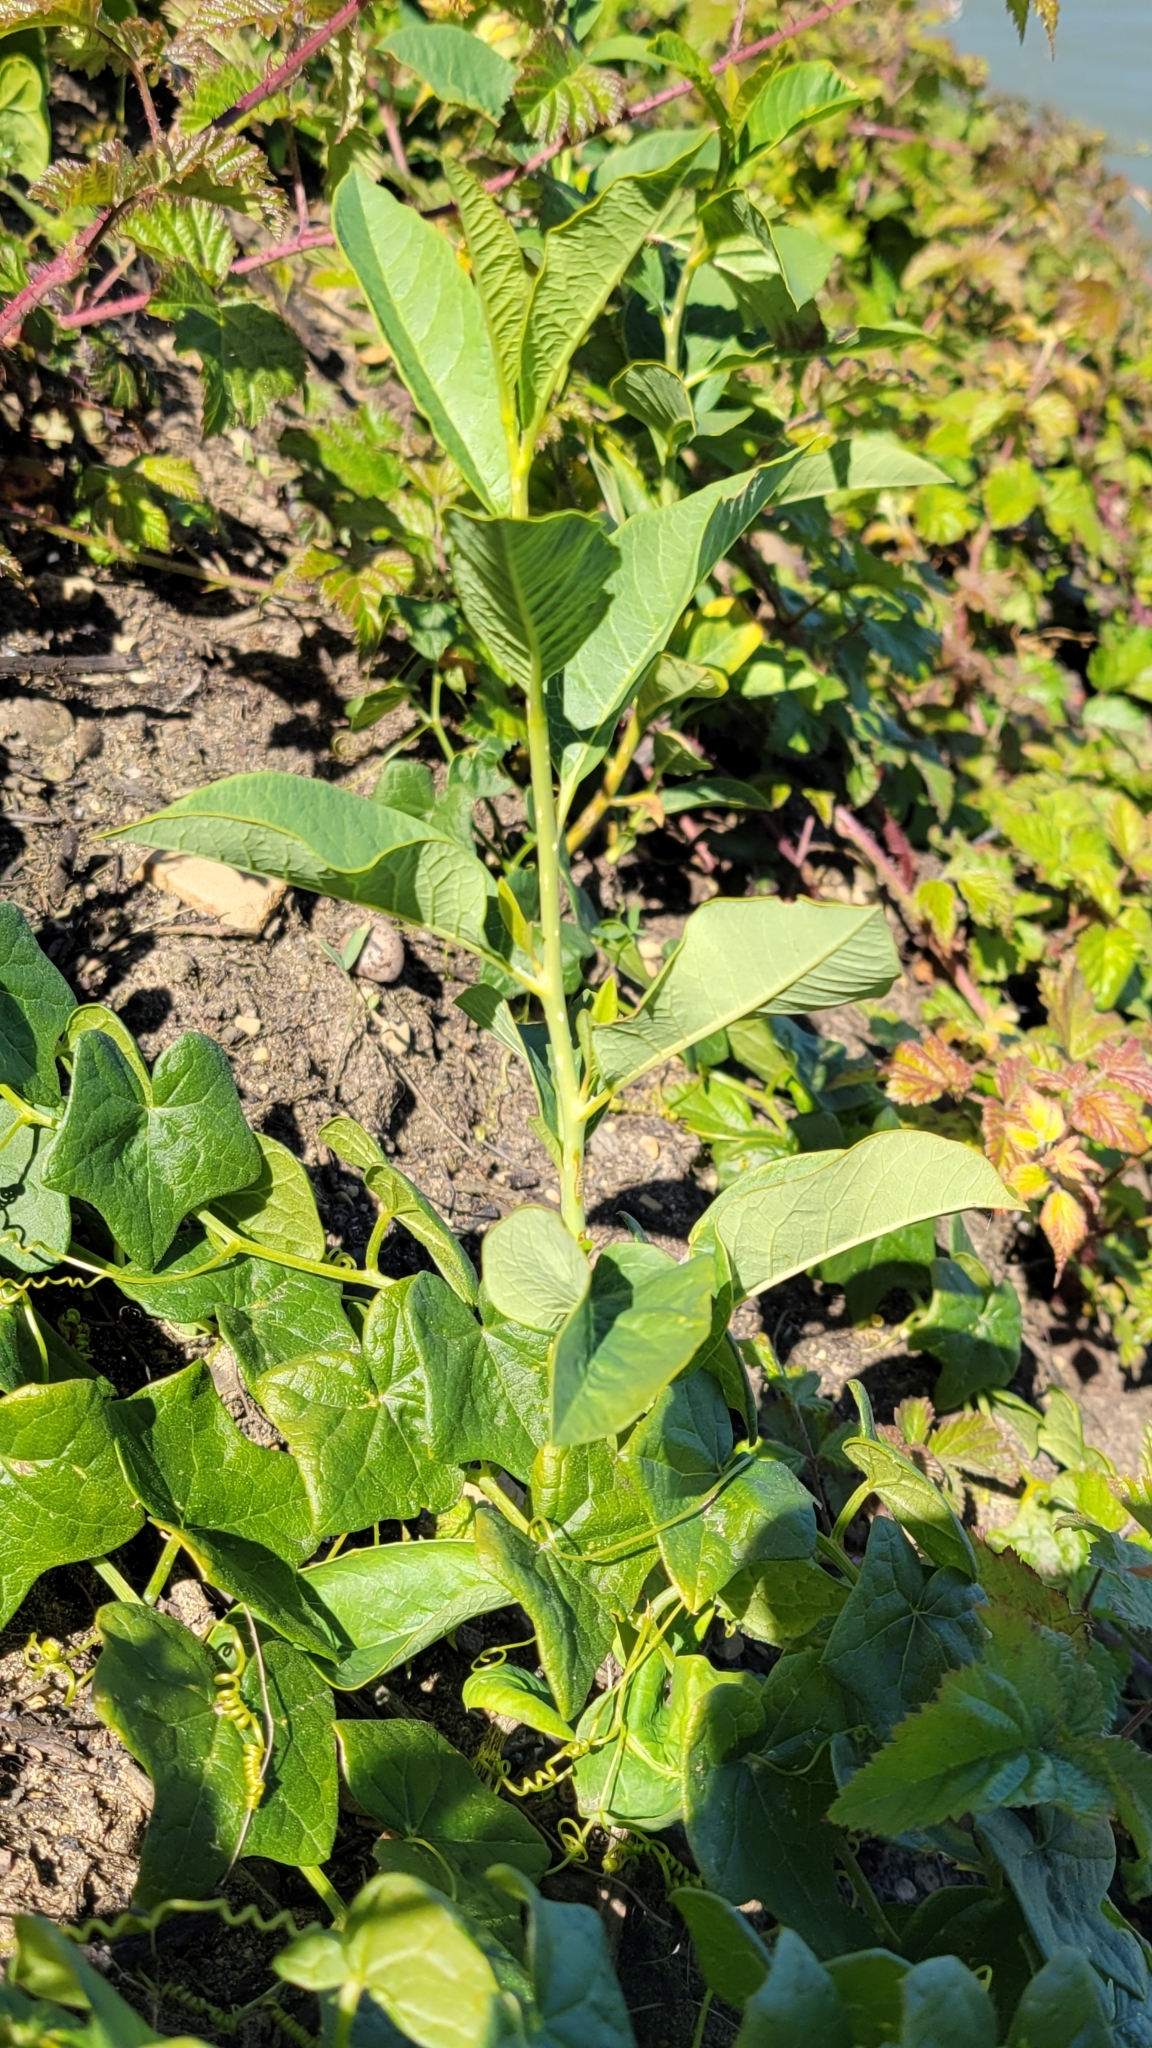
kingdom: Plantae
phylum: Tracheophyta
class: Magnoliopsida
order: Rosales
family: Rosaceae
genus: Oemleria
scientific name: Oemleria cerasiformis
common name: Osoberry
